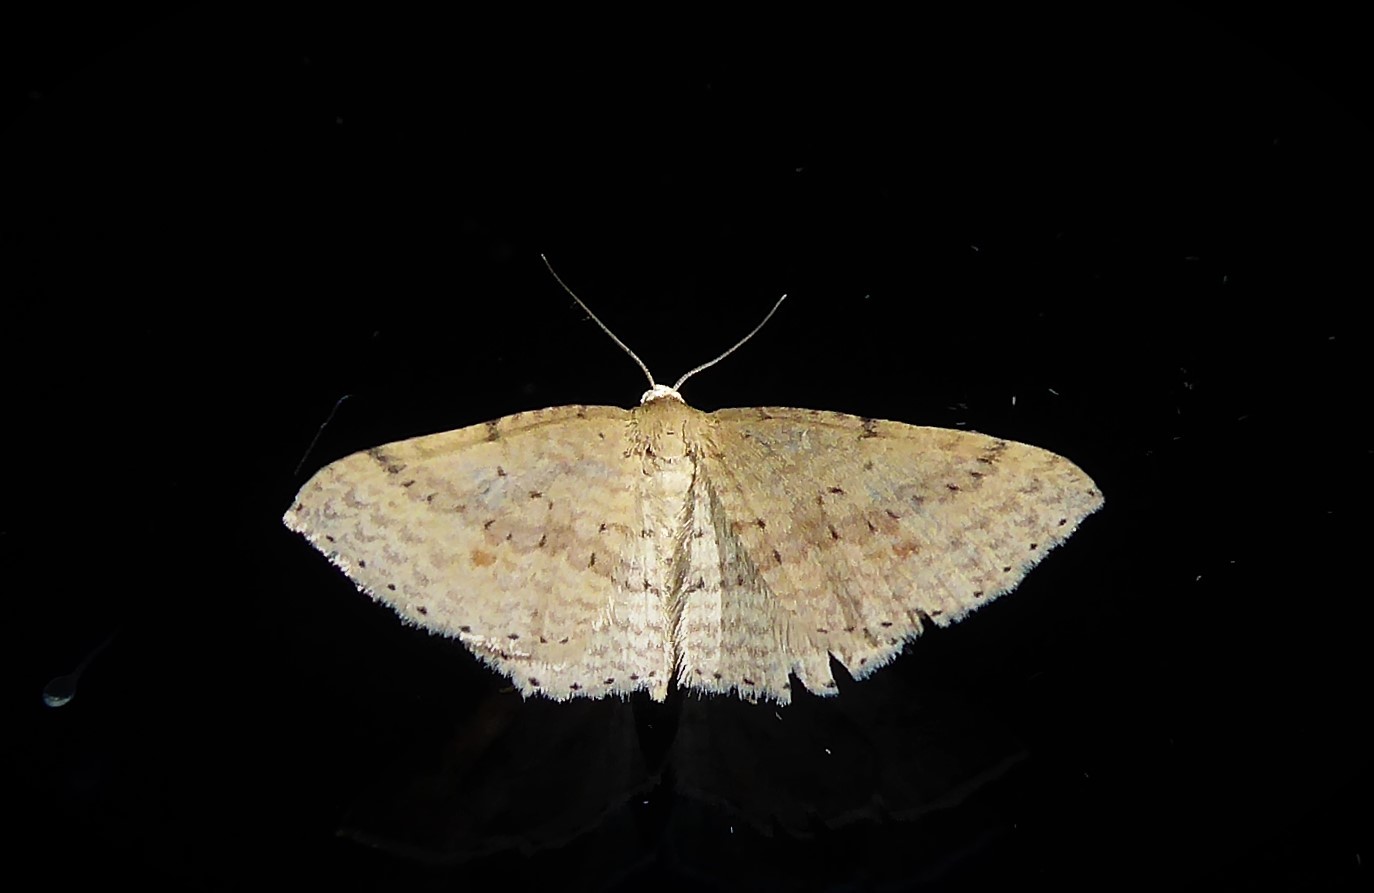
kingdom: Animalia
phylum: Arthropoda
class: Insecta
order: Lepidoptera
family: Geometridae
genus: Epicyme
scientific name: Epicyme rubropunctaria
